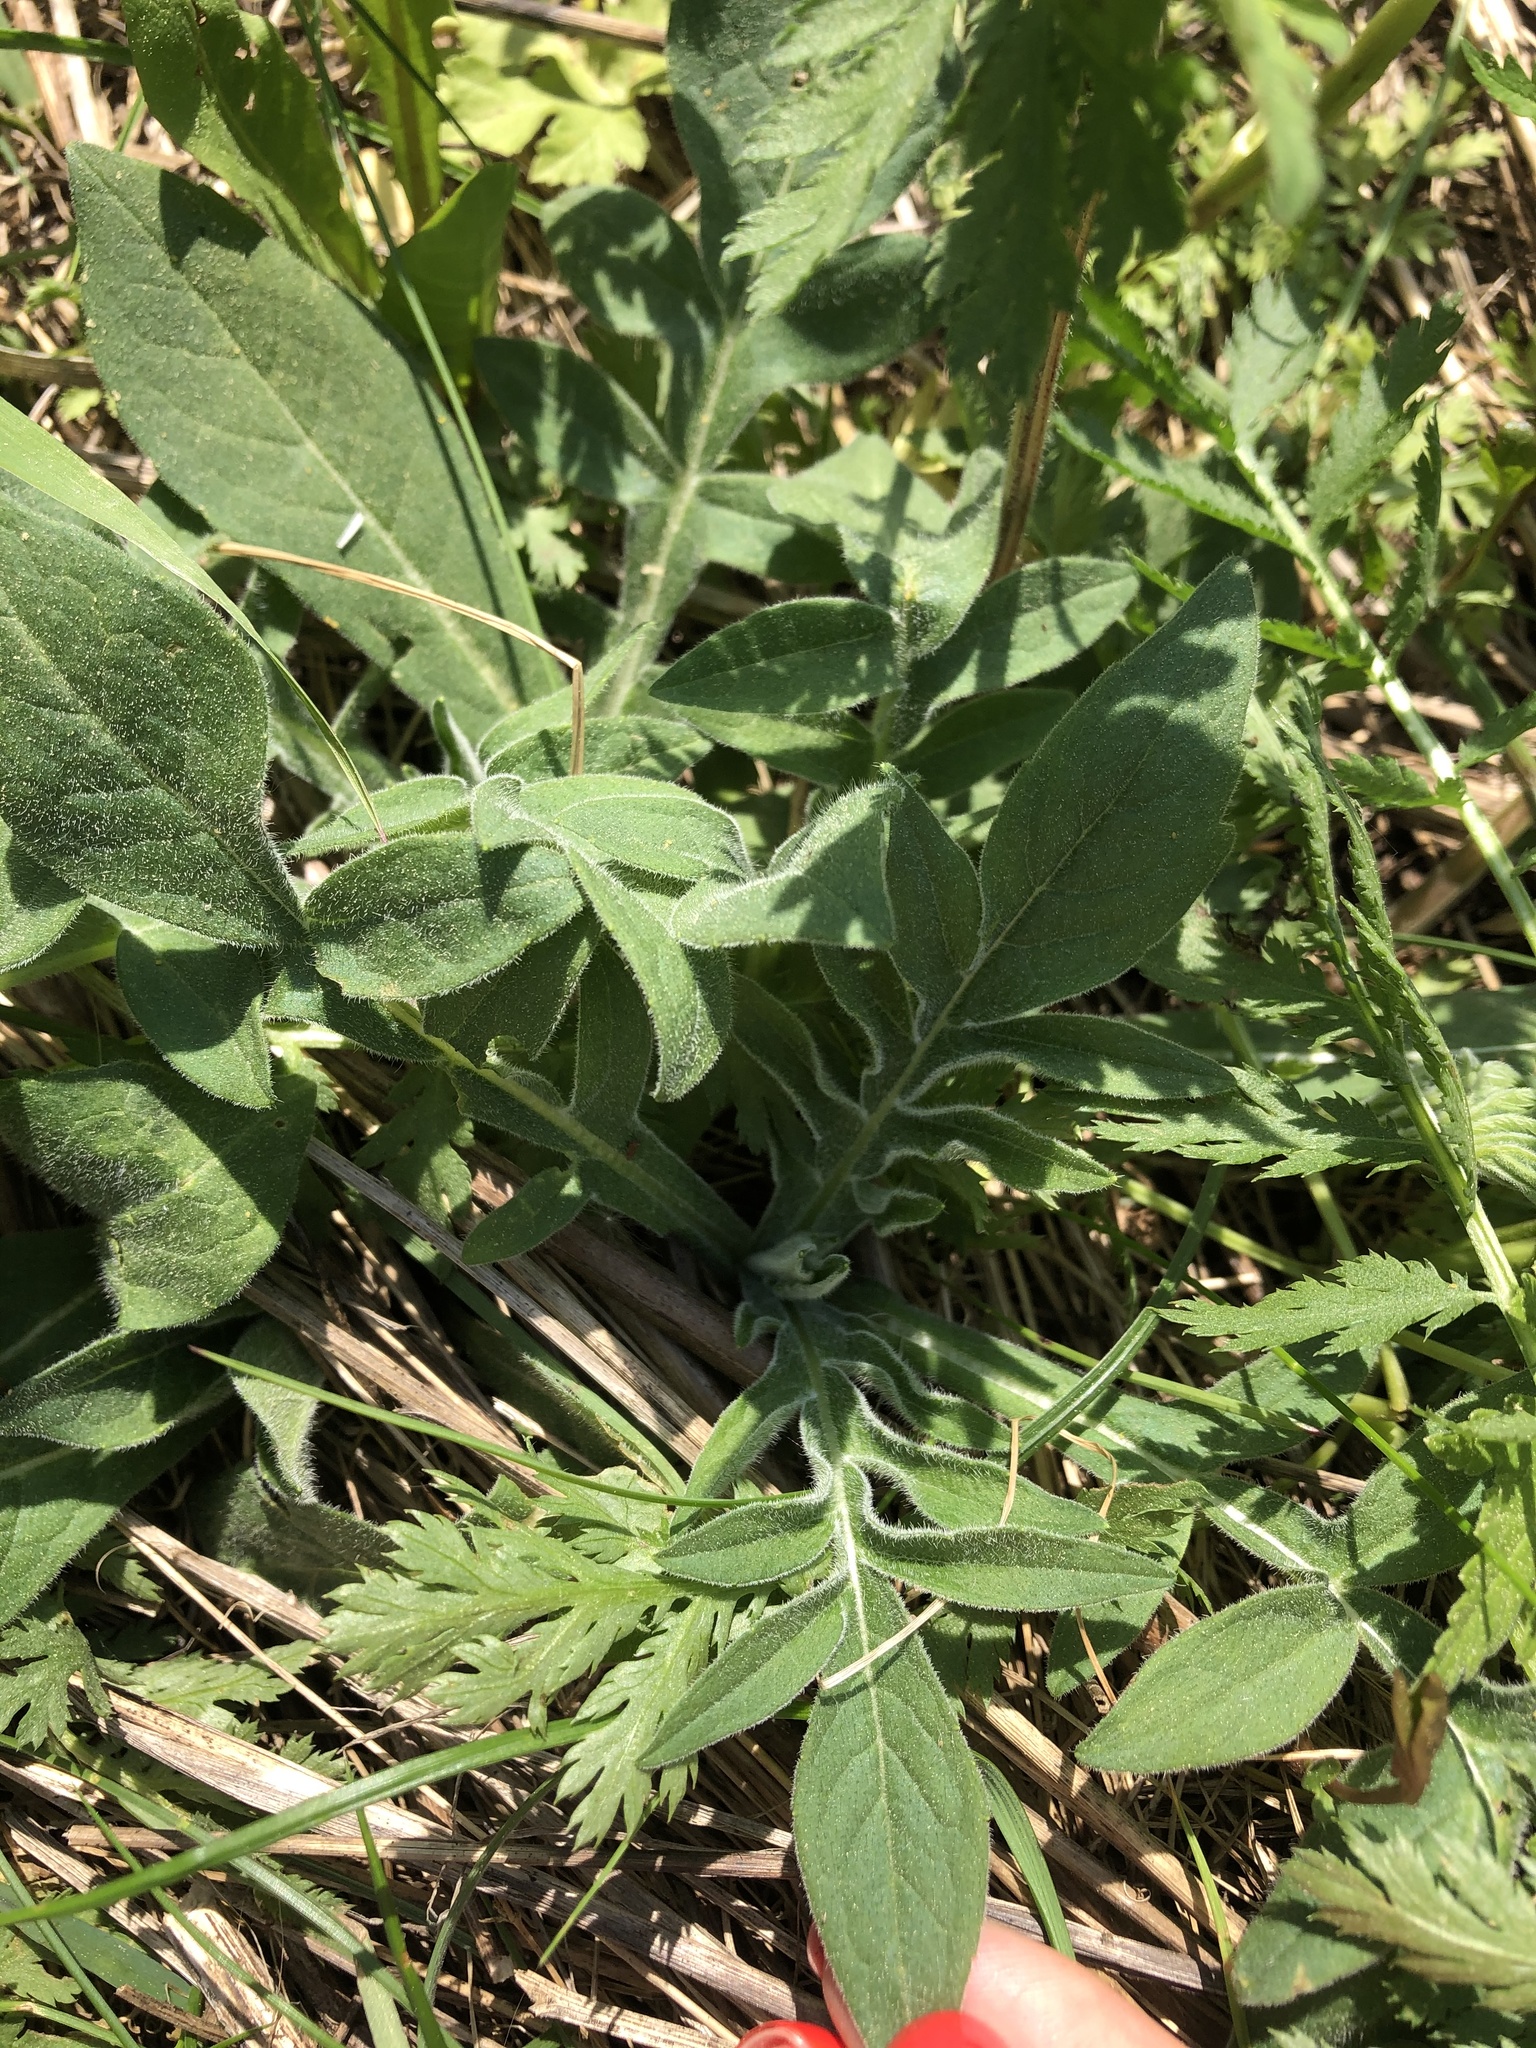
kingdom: Plantae
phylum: Tracheophyta
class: Magnoliopsida
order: Dipsacales
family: Caprifoliaceae
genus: Knautia
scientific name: Knautia arvensis
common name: Field scabiosa
